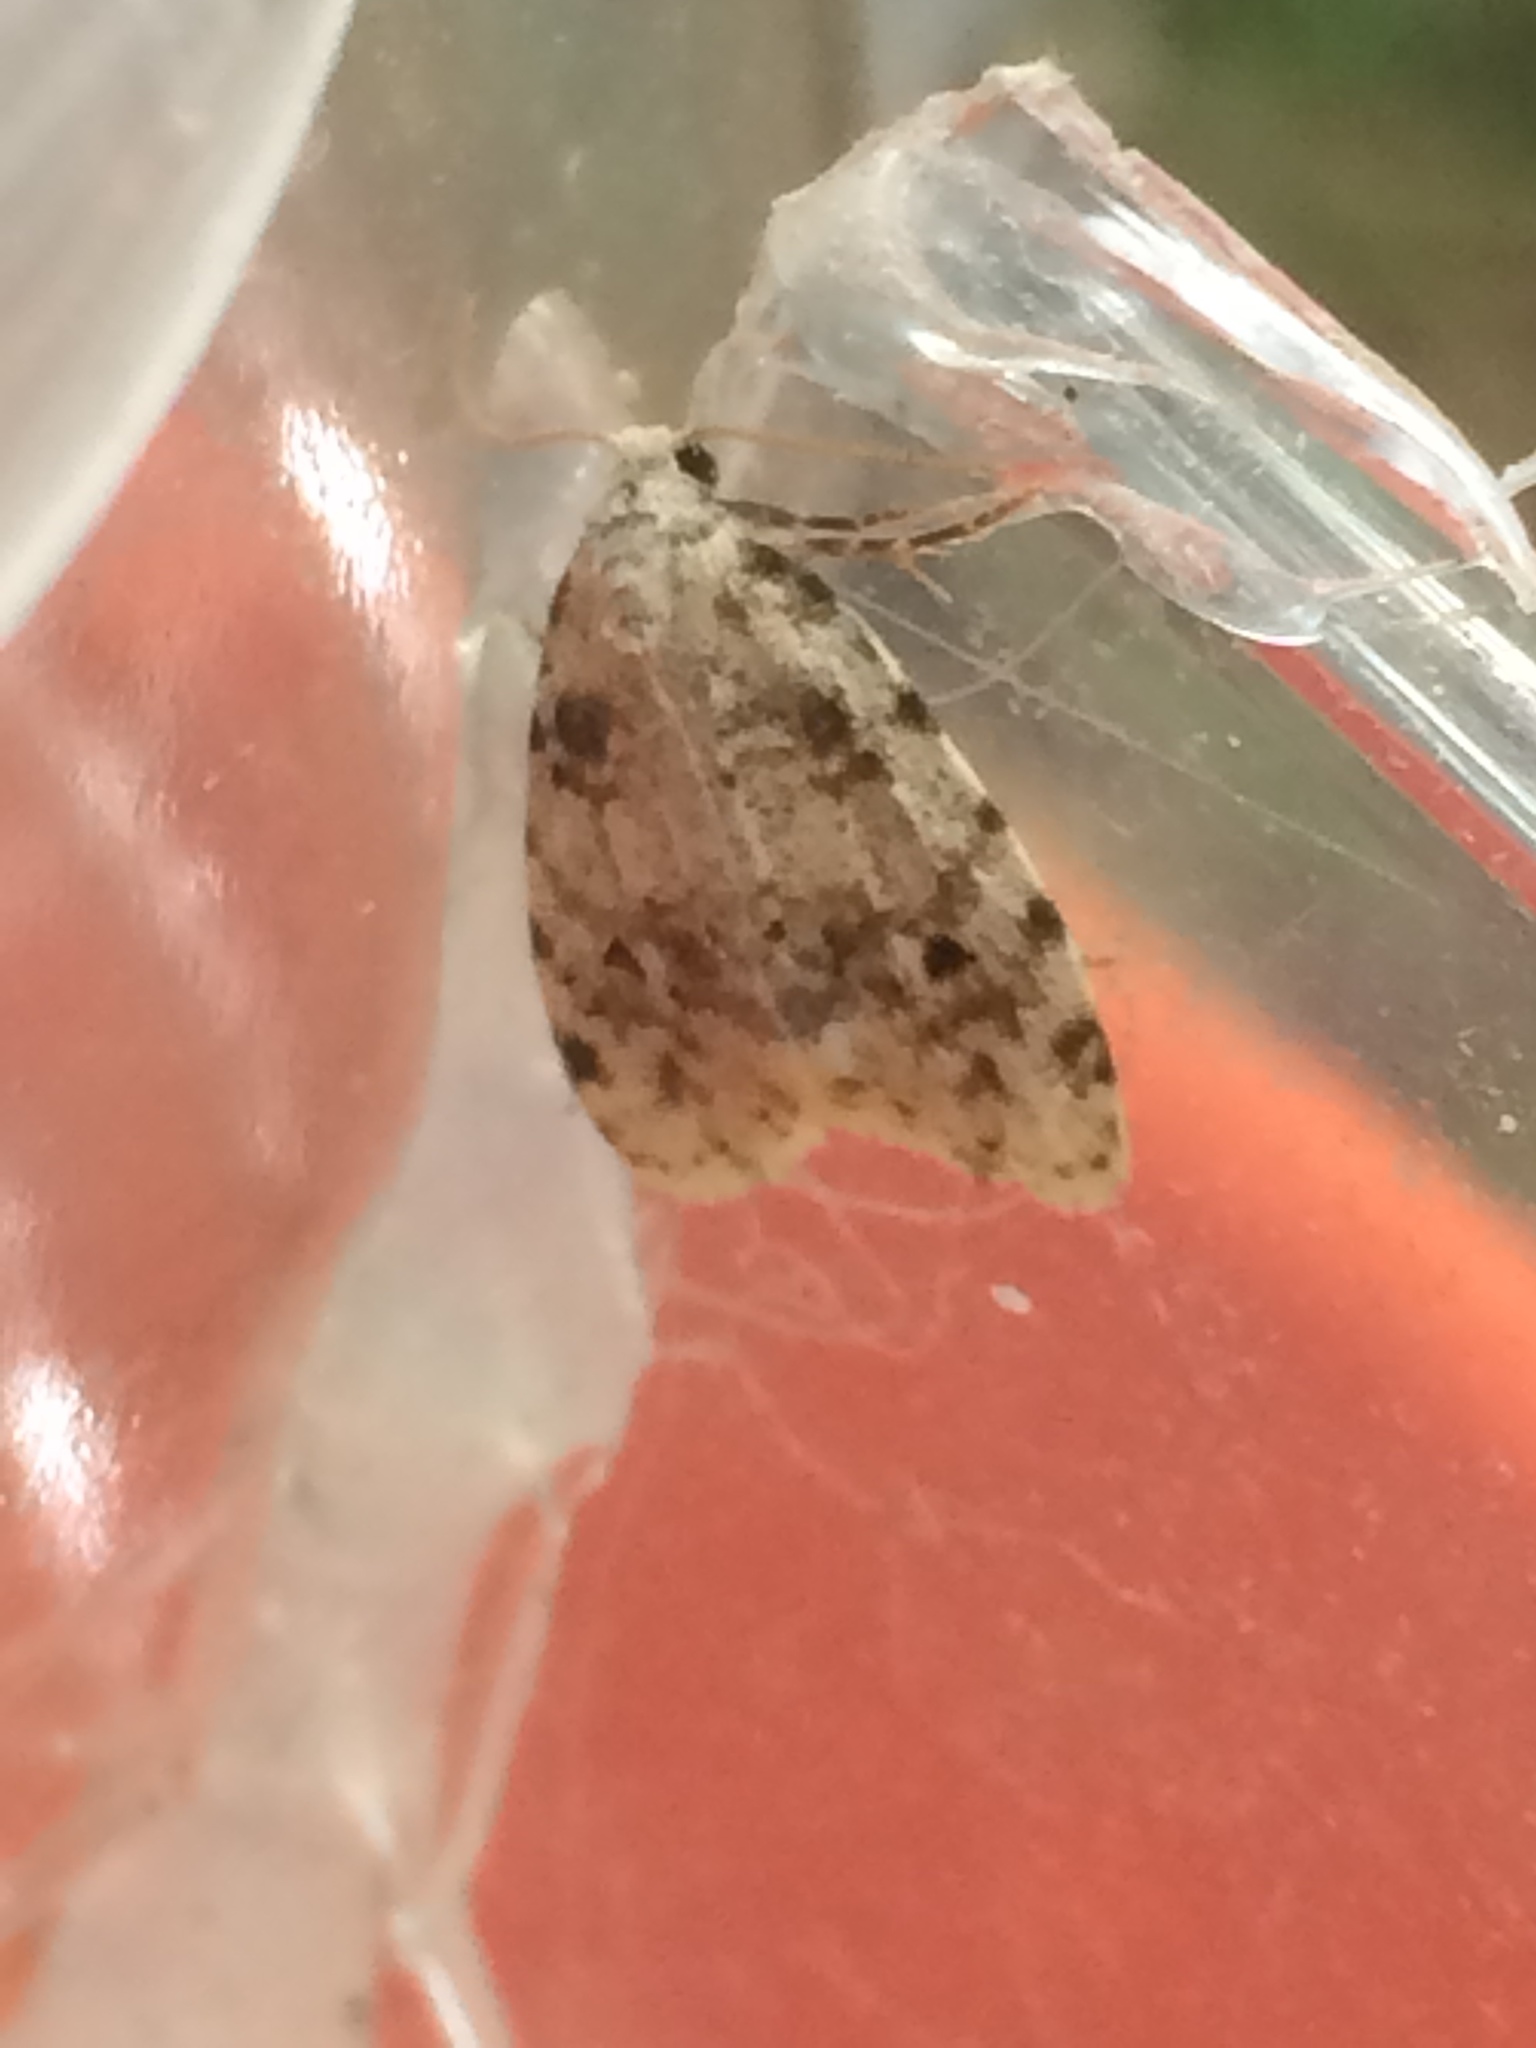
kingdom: Animalia
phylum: Arthropoda
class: Insecta
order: Lepidoptera
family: Erebidae
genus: Clemensia
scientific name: Clemensia ochreata
